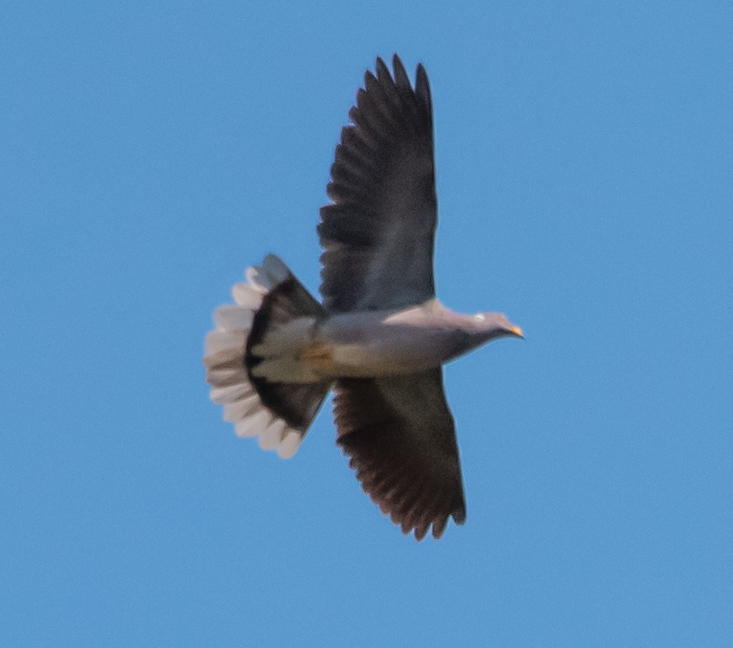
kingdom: Animalia
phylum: Chordata
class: Aves
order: Columbiformes
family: Columbidae
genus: Patagioenas
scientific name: Patagioenas fasciata
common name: Band-tailed pigeon
